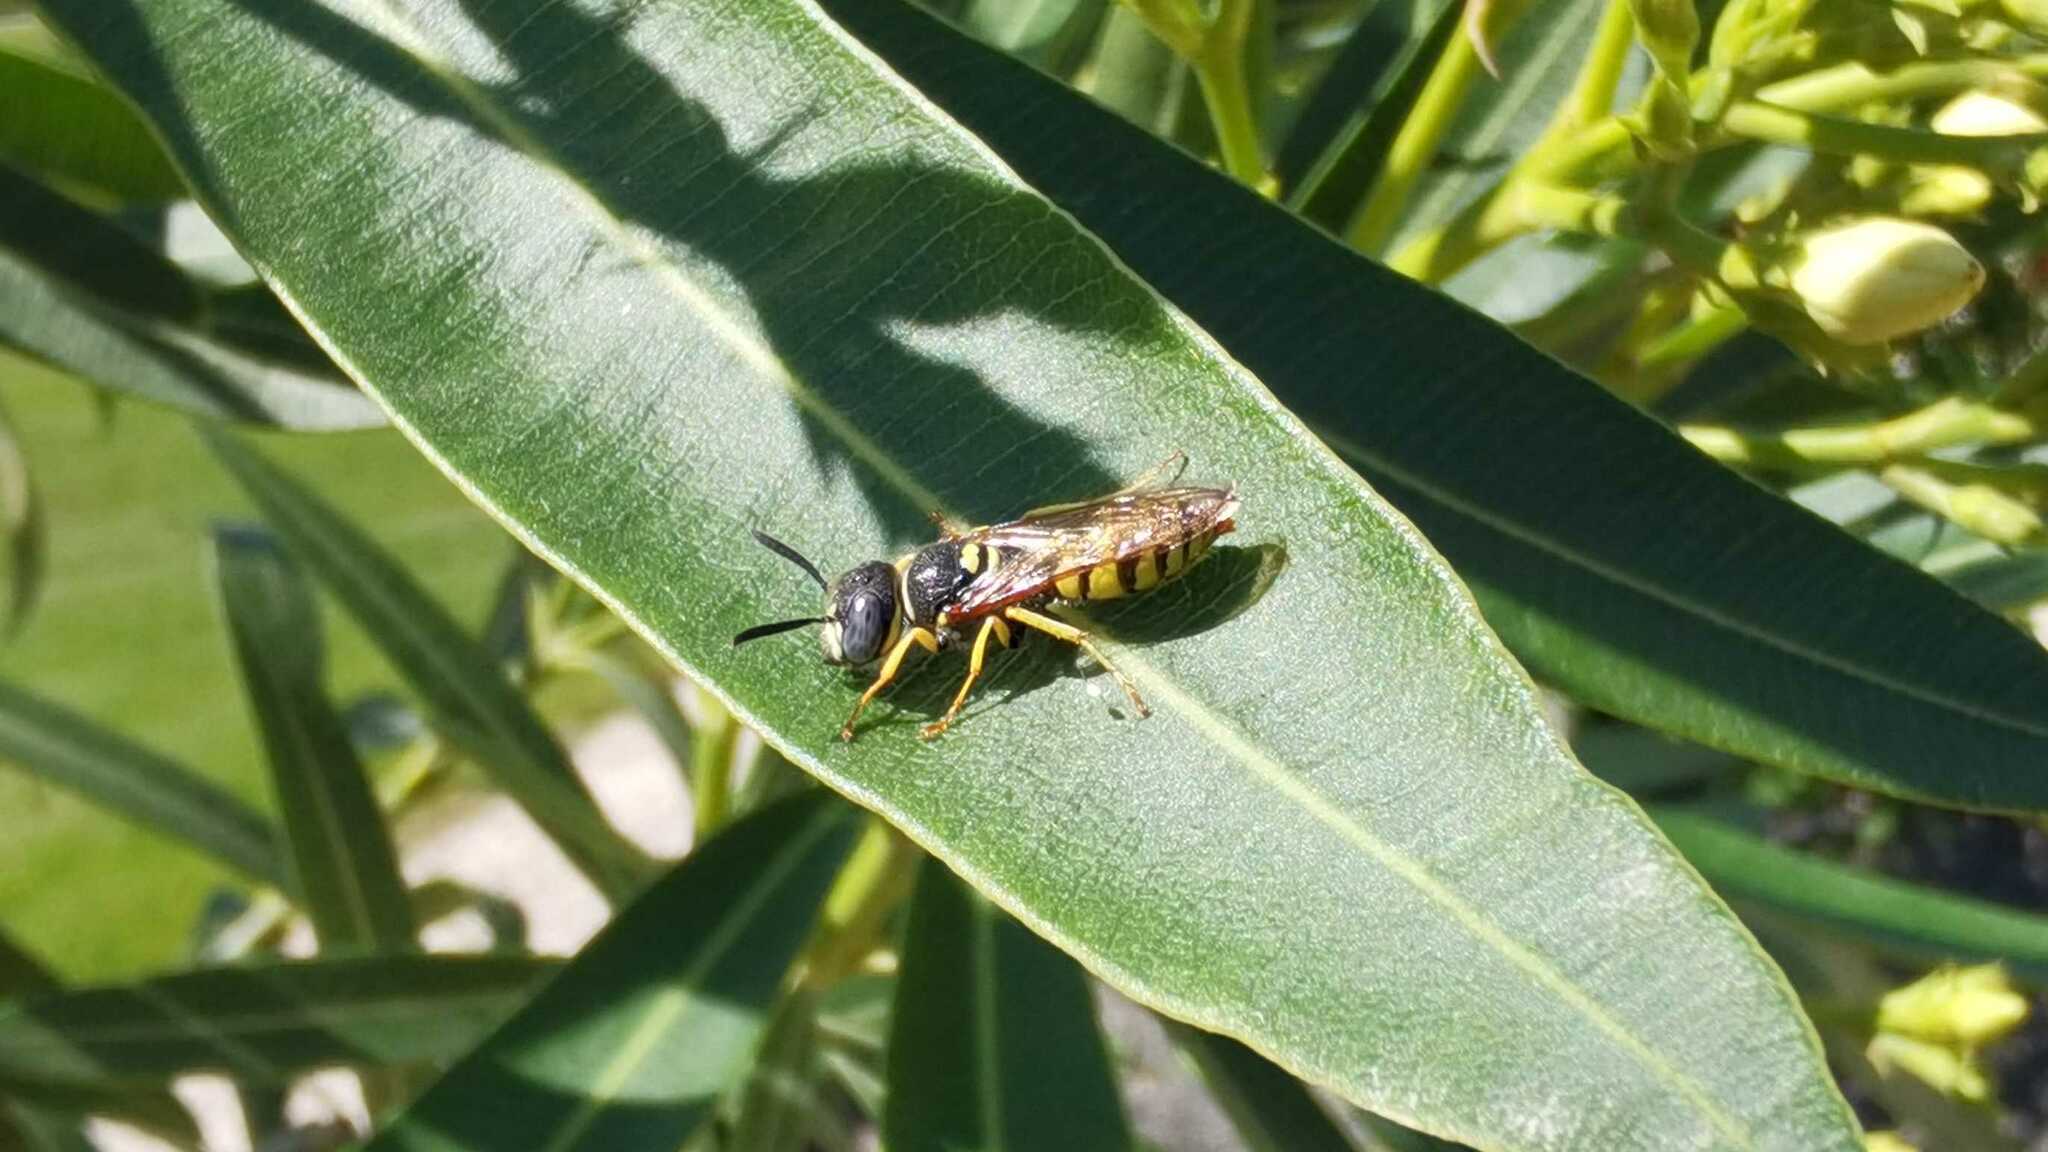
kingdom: Animalia
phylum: Arthropoda
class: Insecta
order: Hymenoptera
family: Crabronidae
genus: Philanthus
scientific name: Philanthus triangulum
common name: Bee wolf
